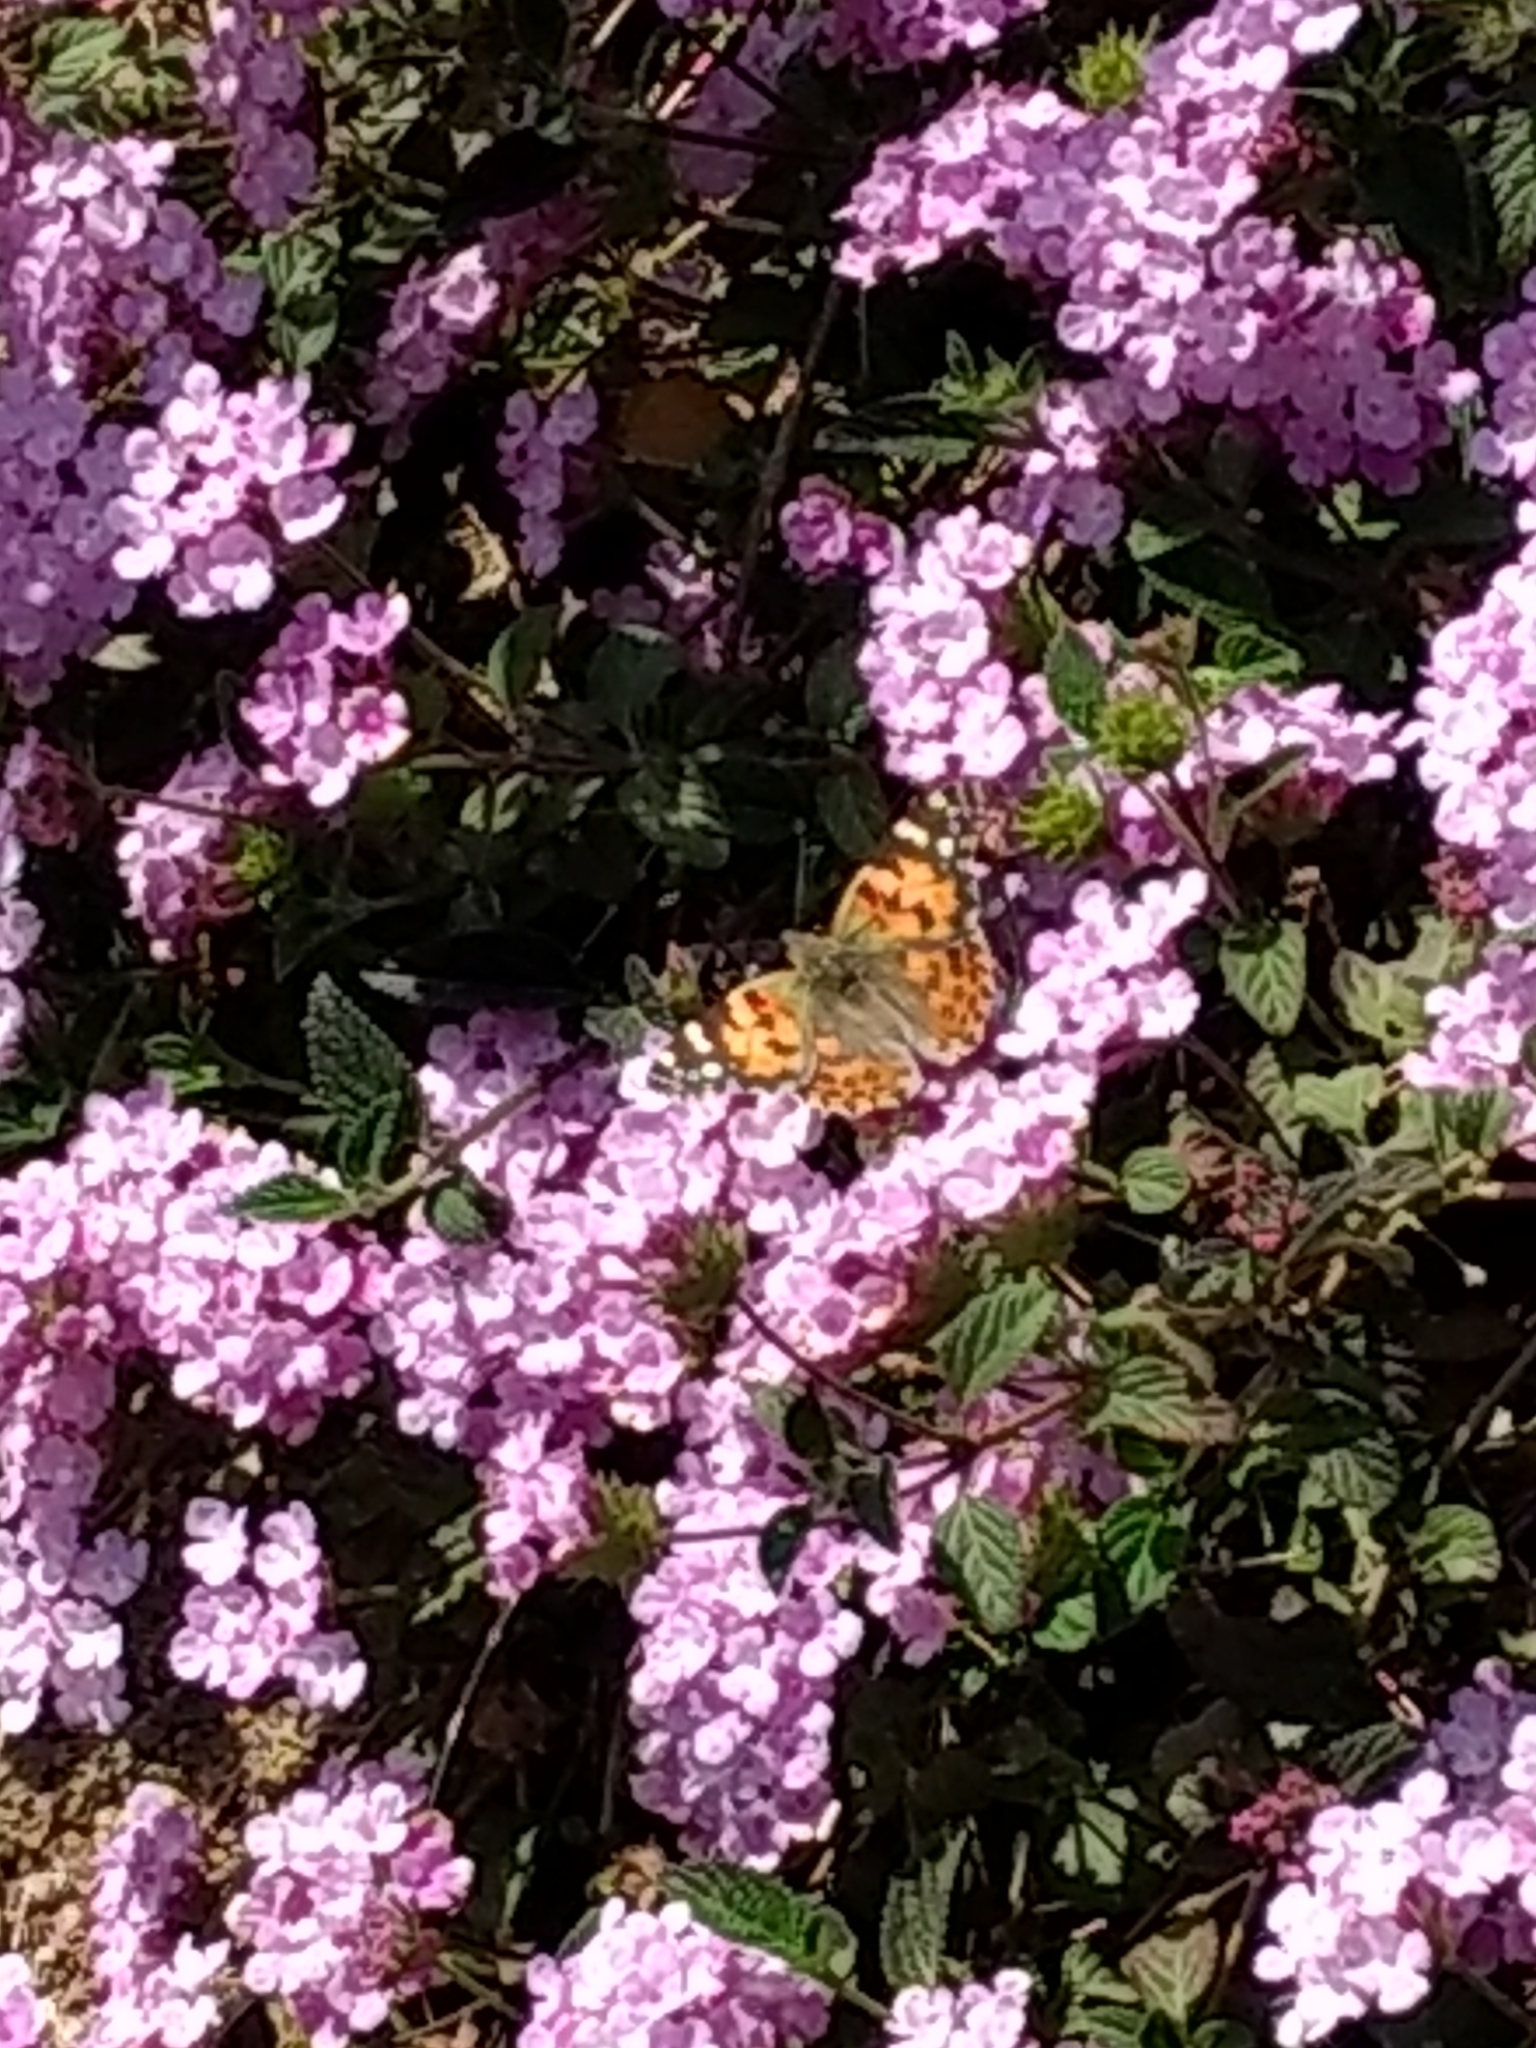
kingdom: Animalia
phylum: Arthropoda
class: Insecta
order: Lepidoptera
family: Nymphalidae
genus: Vanessa
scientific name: Vanessa cardui
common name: Painted lady
